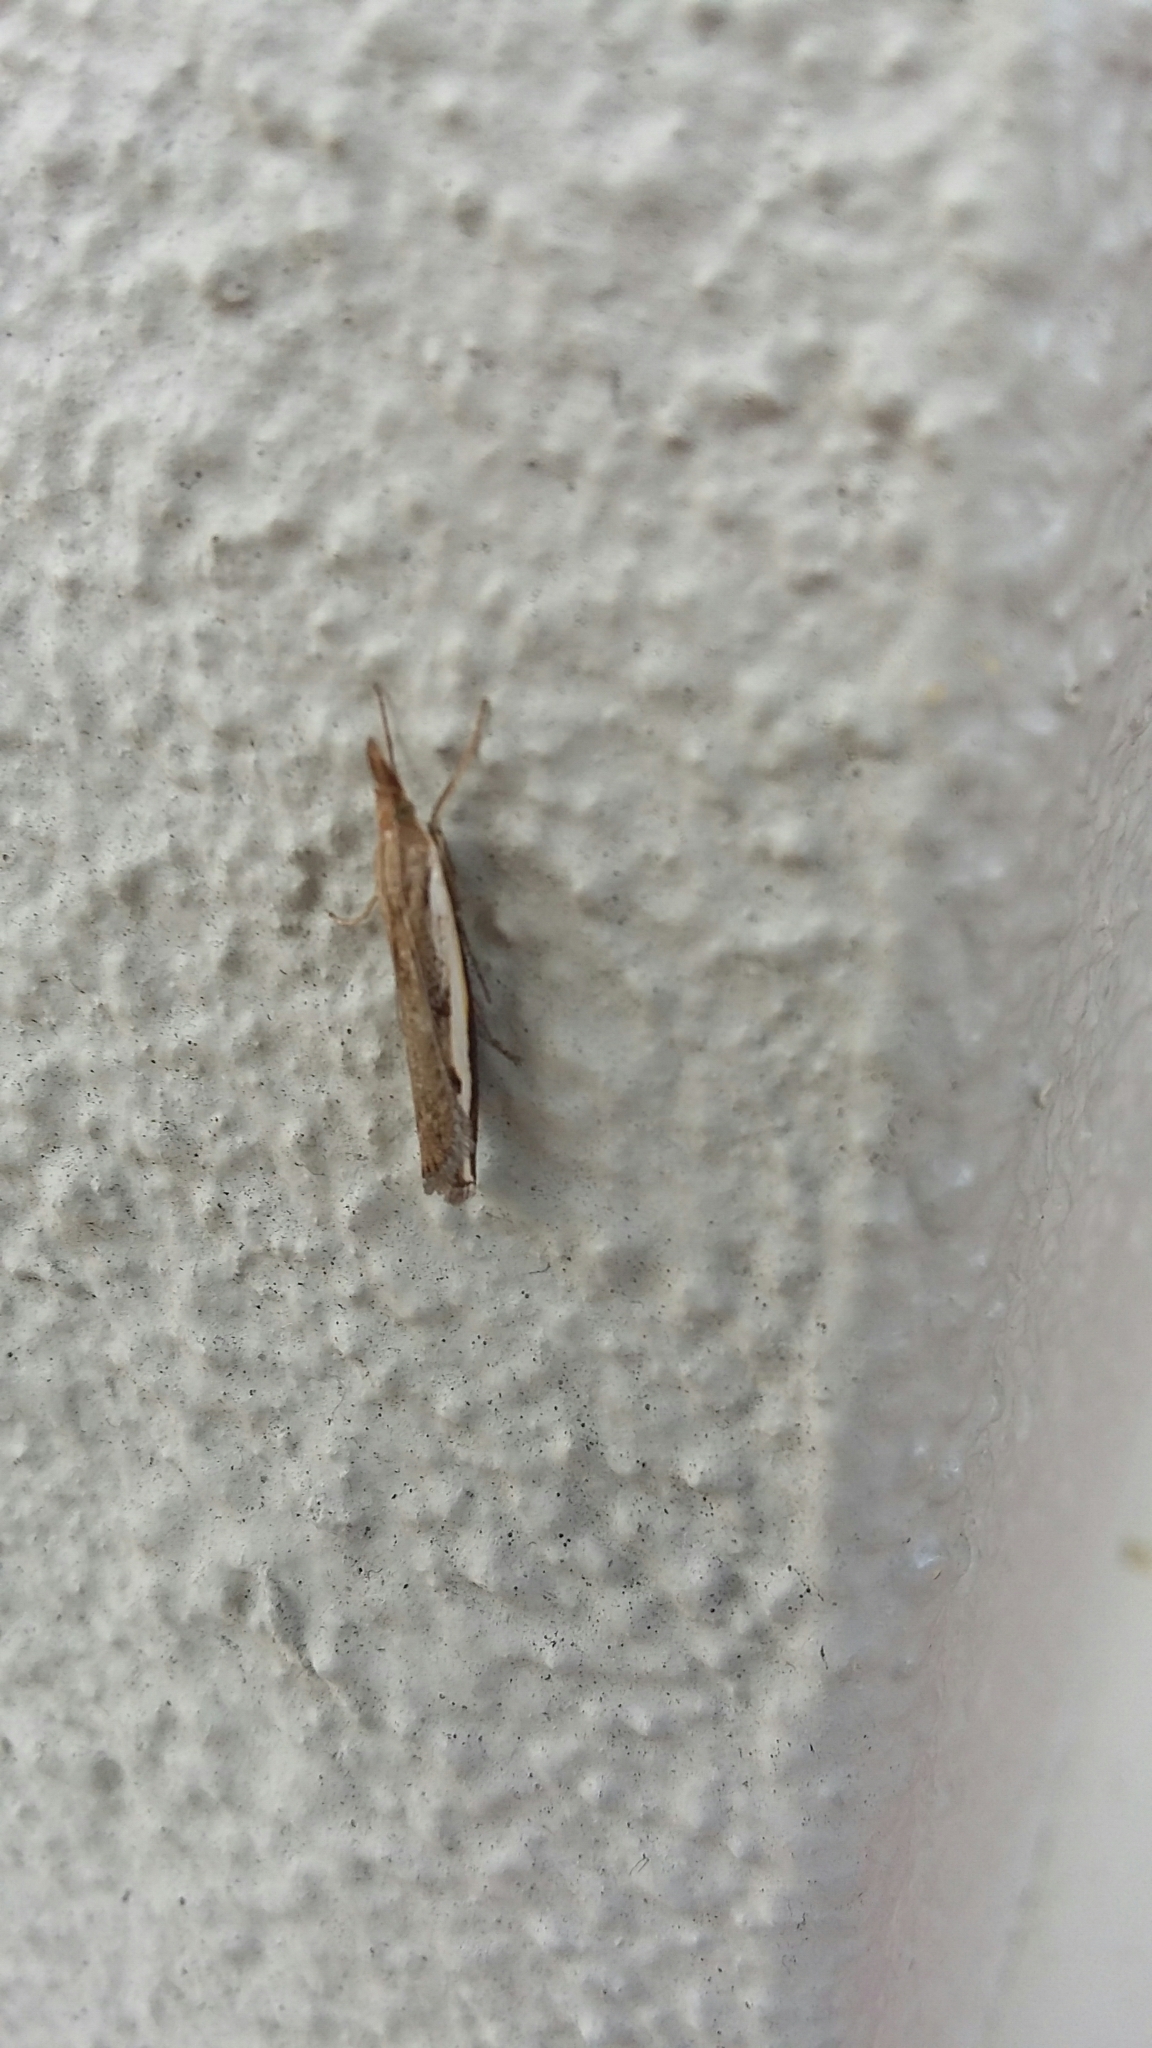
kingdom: Animalia
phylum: Arthropoda
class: Insecta
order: Lepidoptera
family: Crambidae
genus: Orocrambus
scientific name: Orocrambus flexuosellus
